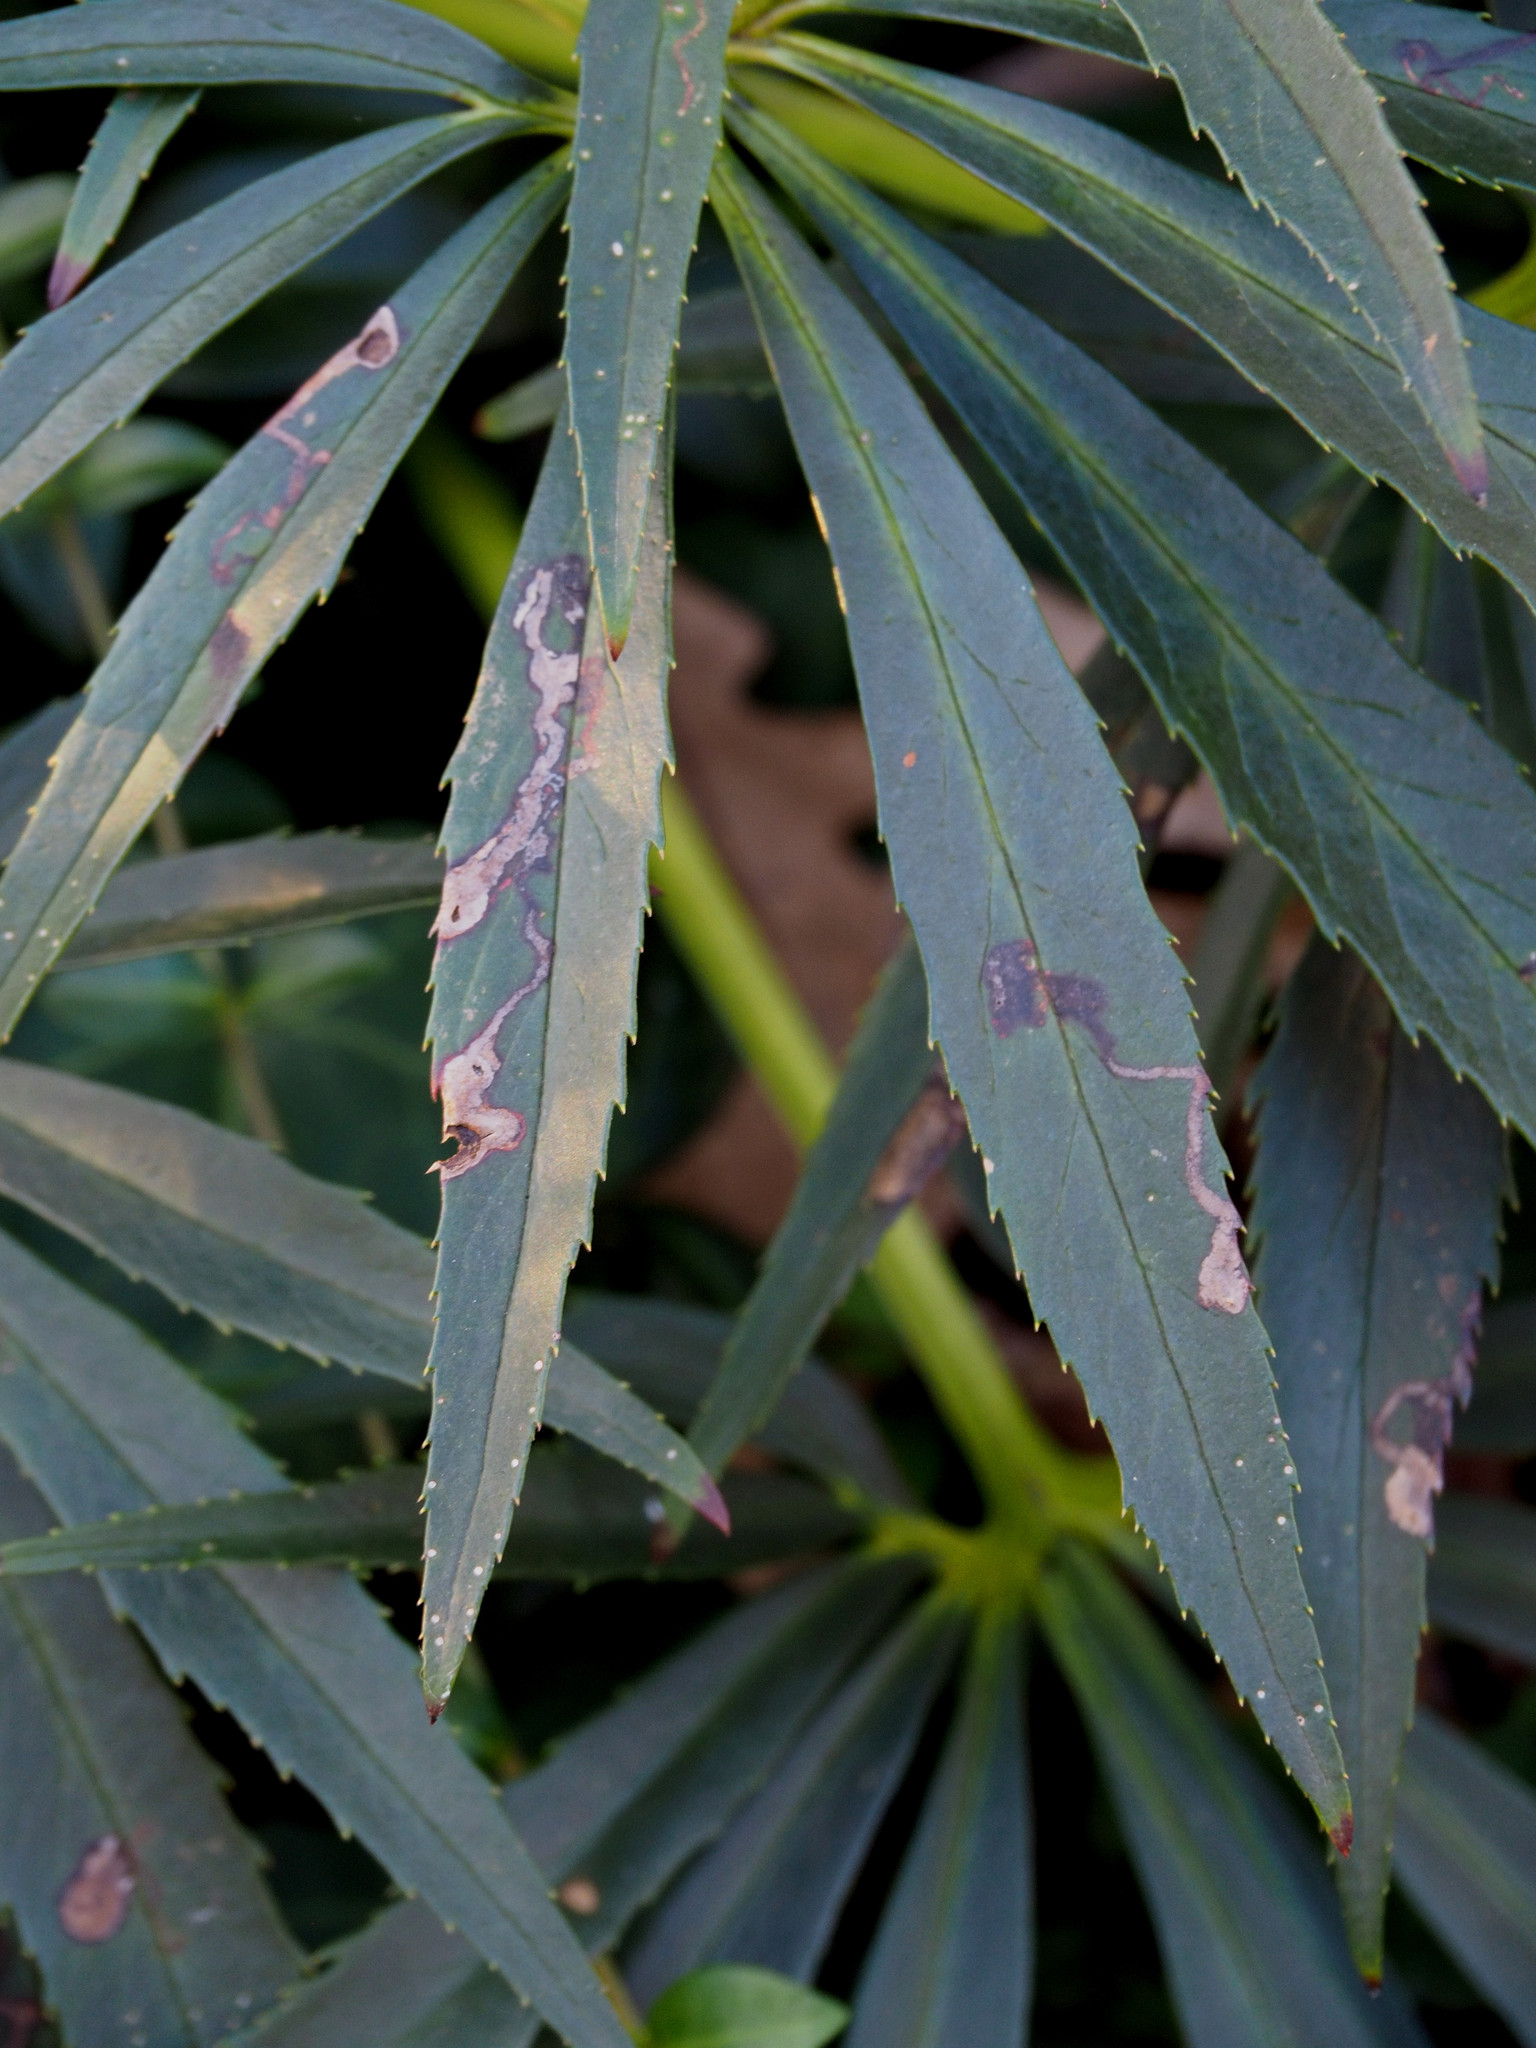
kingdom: Fungi
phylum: Ascomycota
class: Dothideomycetes
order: Pleosporales
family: Didymellaceae
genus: Microsphaeropsis
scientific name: Microsphaeropsis hellebori
